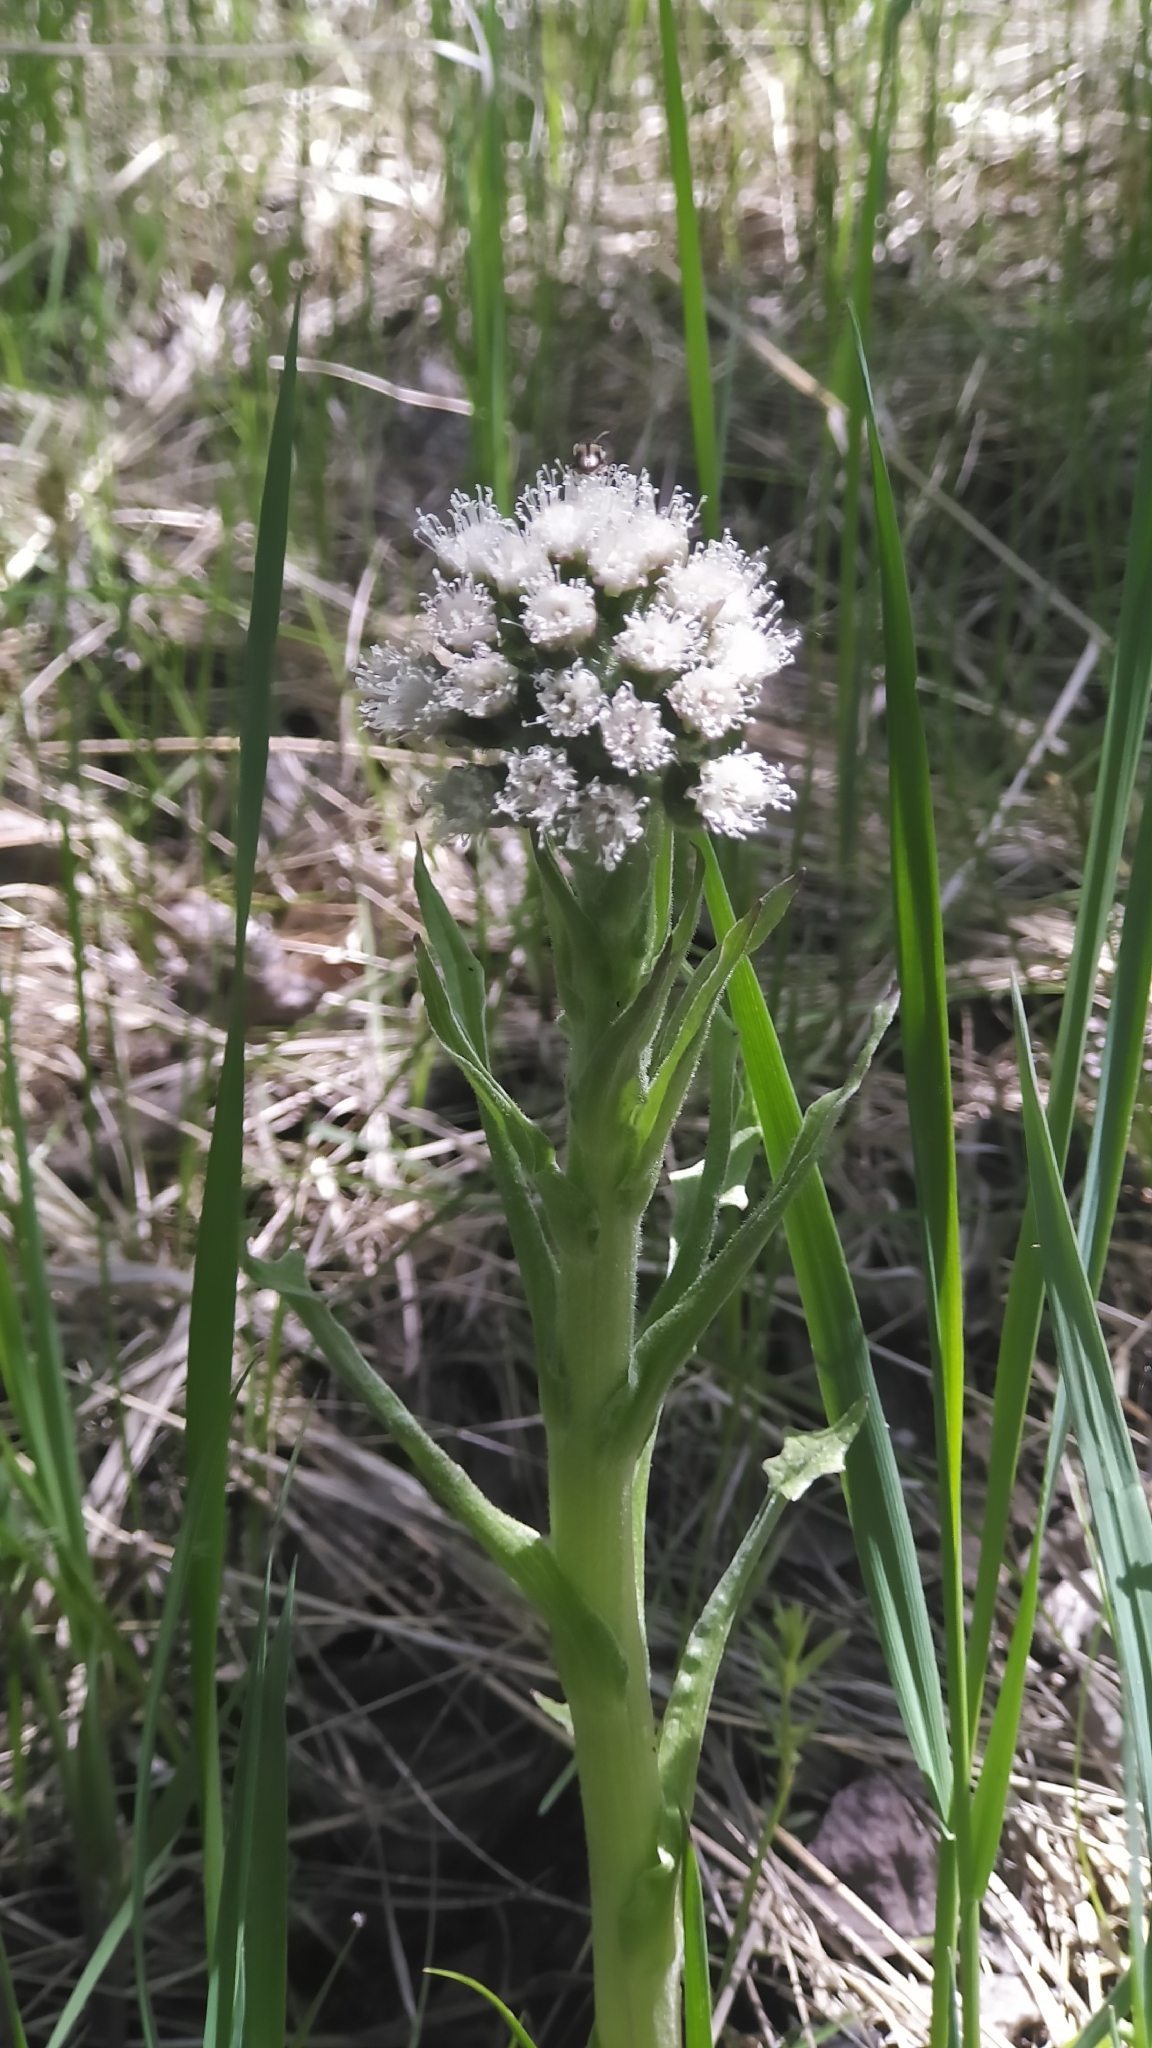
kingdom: Plantae
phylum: Tracheophyta
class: Magnoliopsida
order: Asterales
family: Asteraceae
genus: Petasites
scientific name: Petasites frigidus
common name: Arctic butterbur
